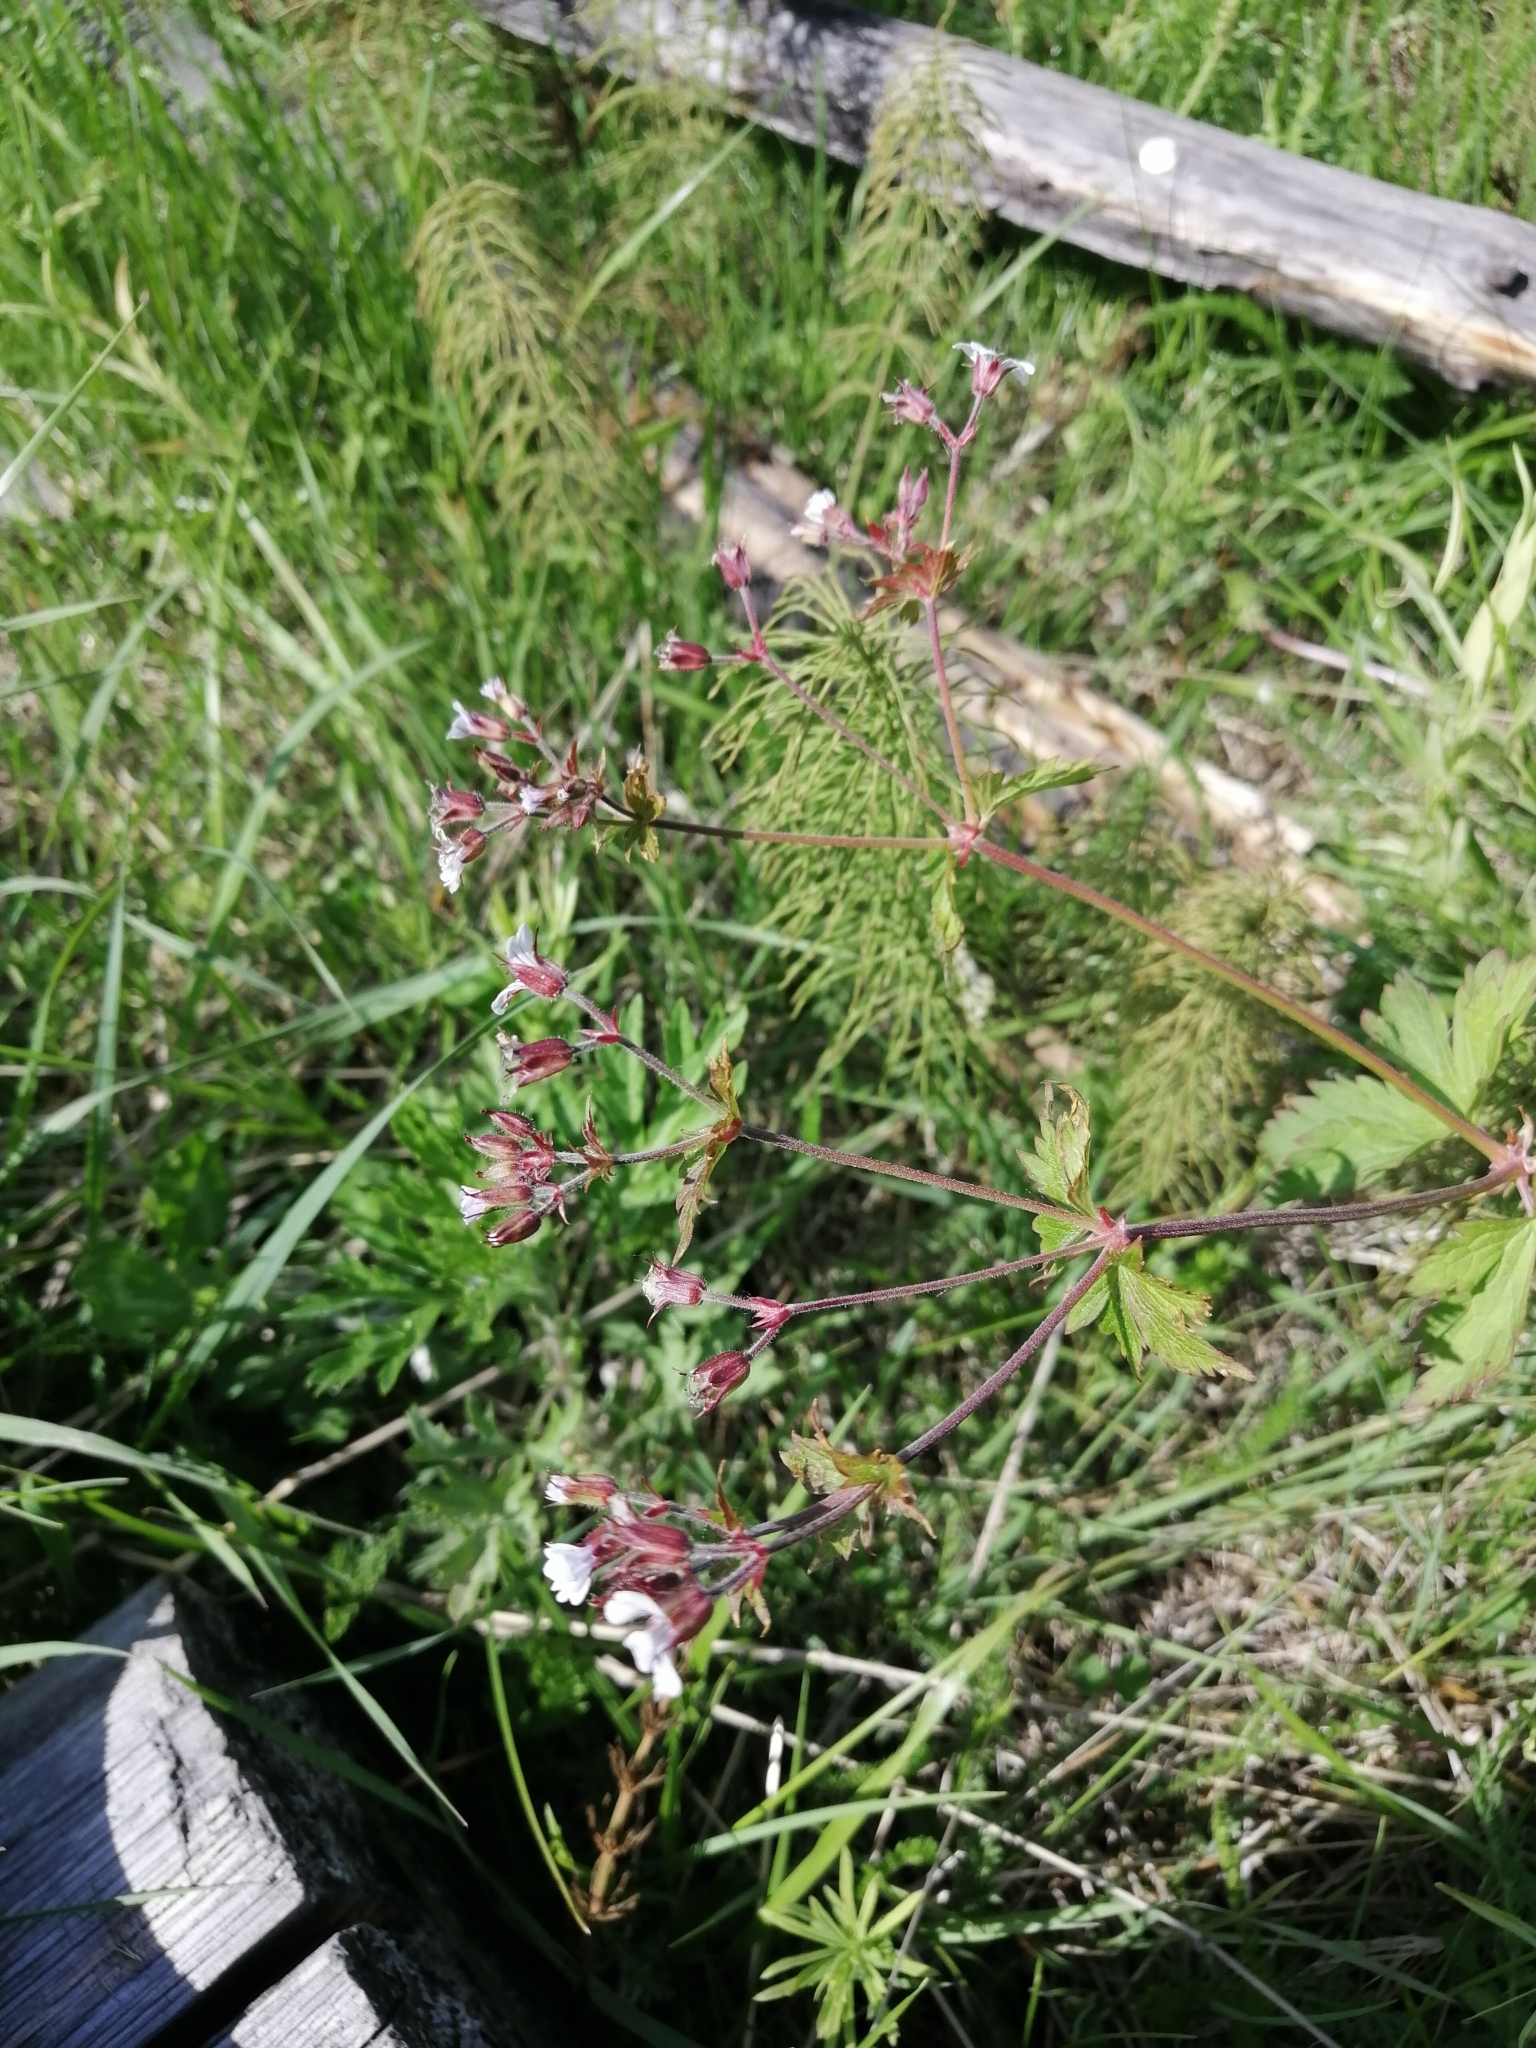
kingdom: Plantae
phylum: Tracheophyta
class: Magnoliopsida
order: Geraniales
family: Geraniaceae
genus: Geranium
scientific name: Geranium sylvaticum
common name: Wood crane's-bill
